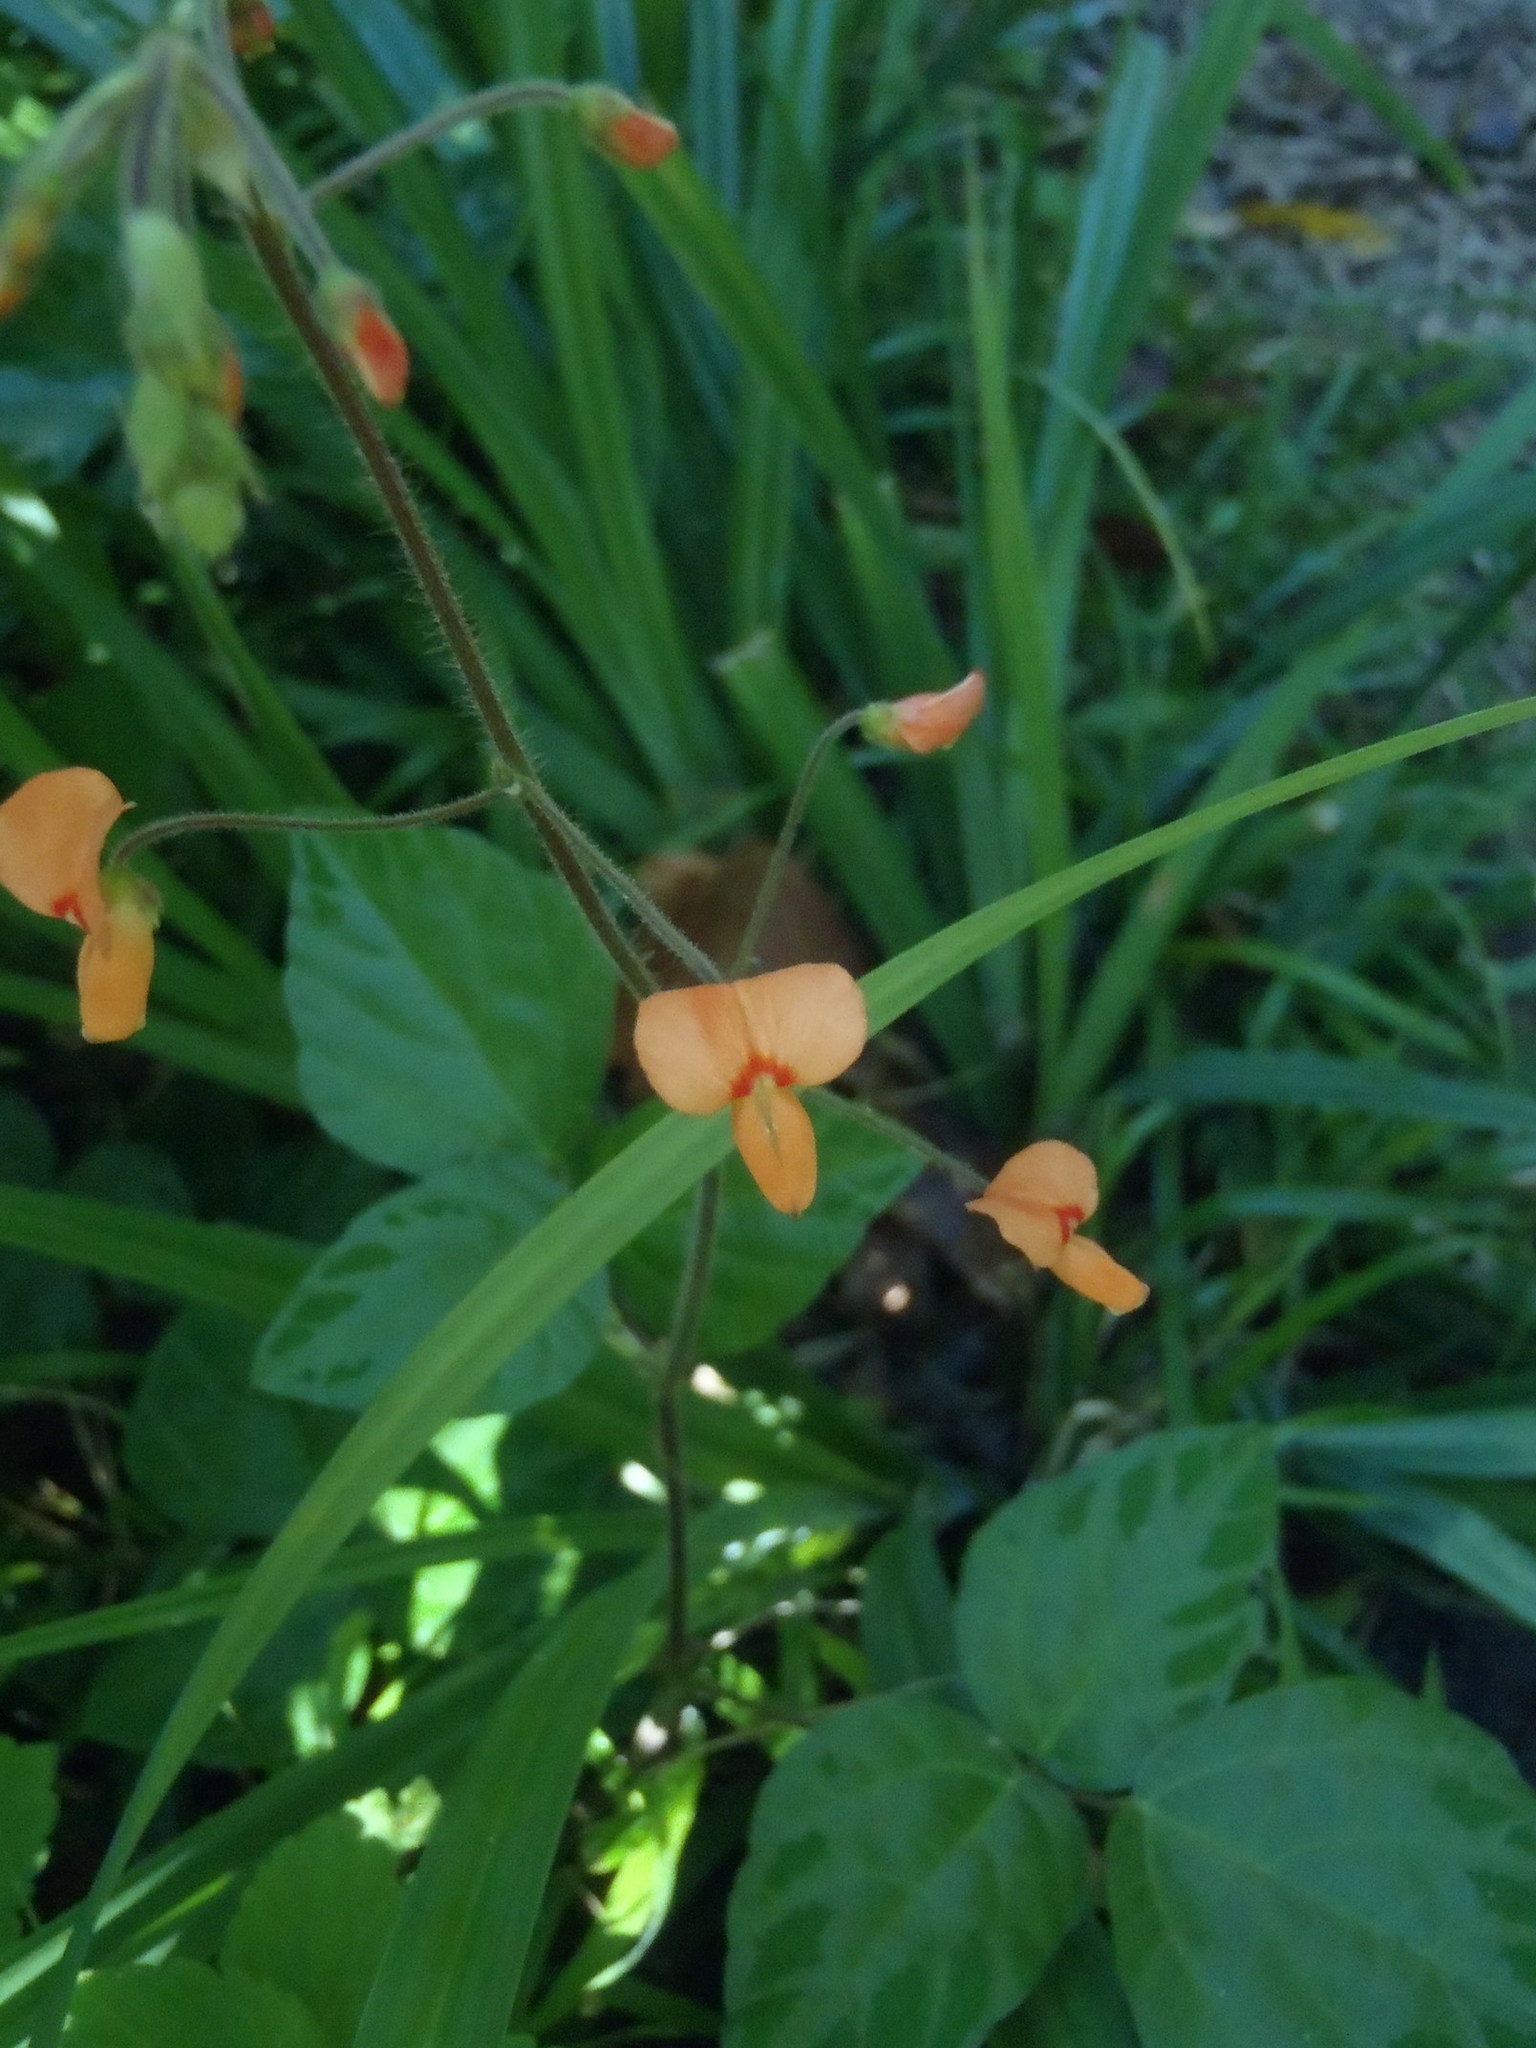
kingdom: Plantae
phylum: Tracheophyta
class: Magnoliopsida
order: Fabales
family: Fabaceae
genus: Hylodesmum
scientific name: Hylodesmum repandum
